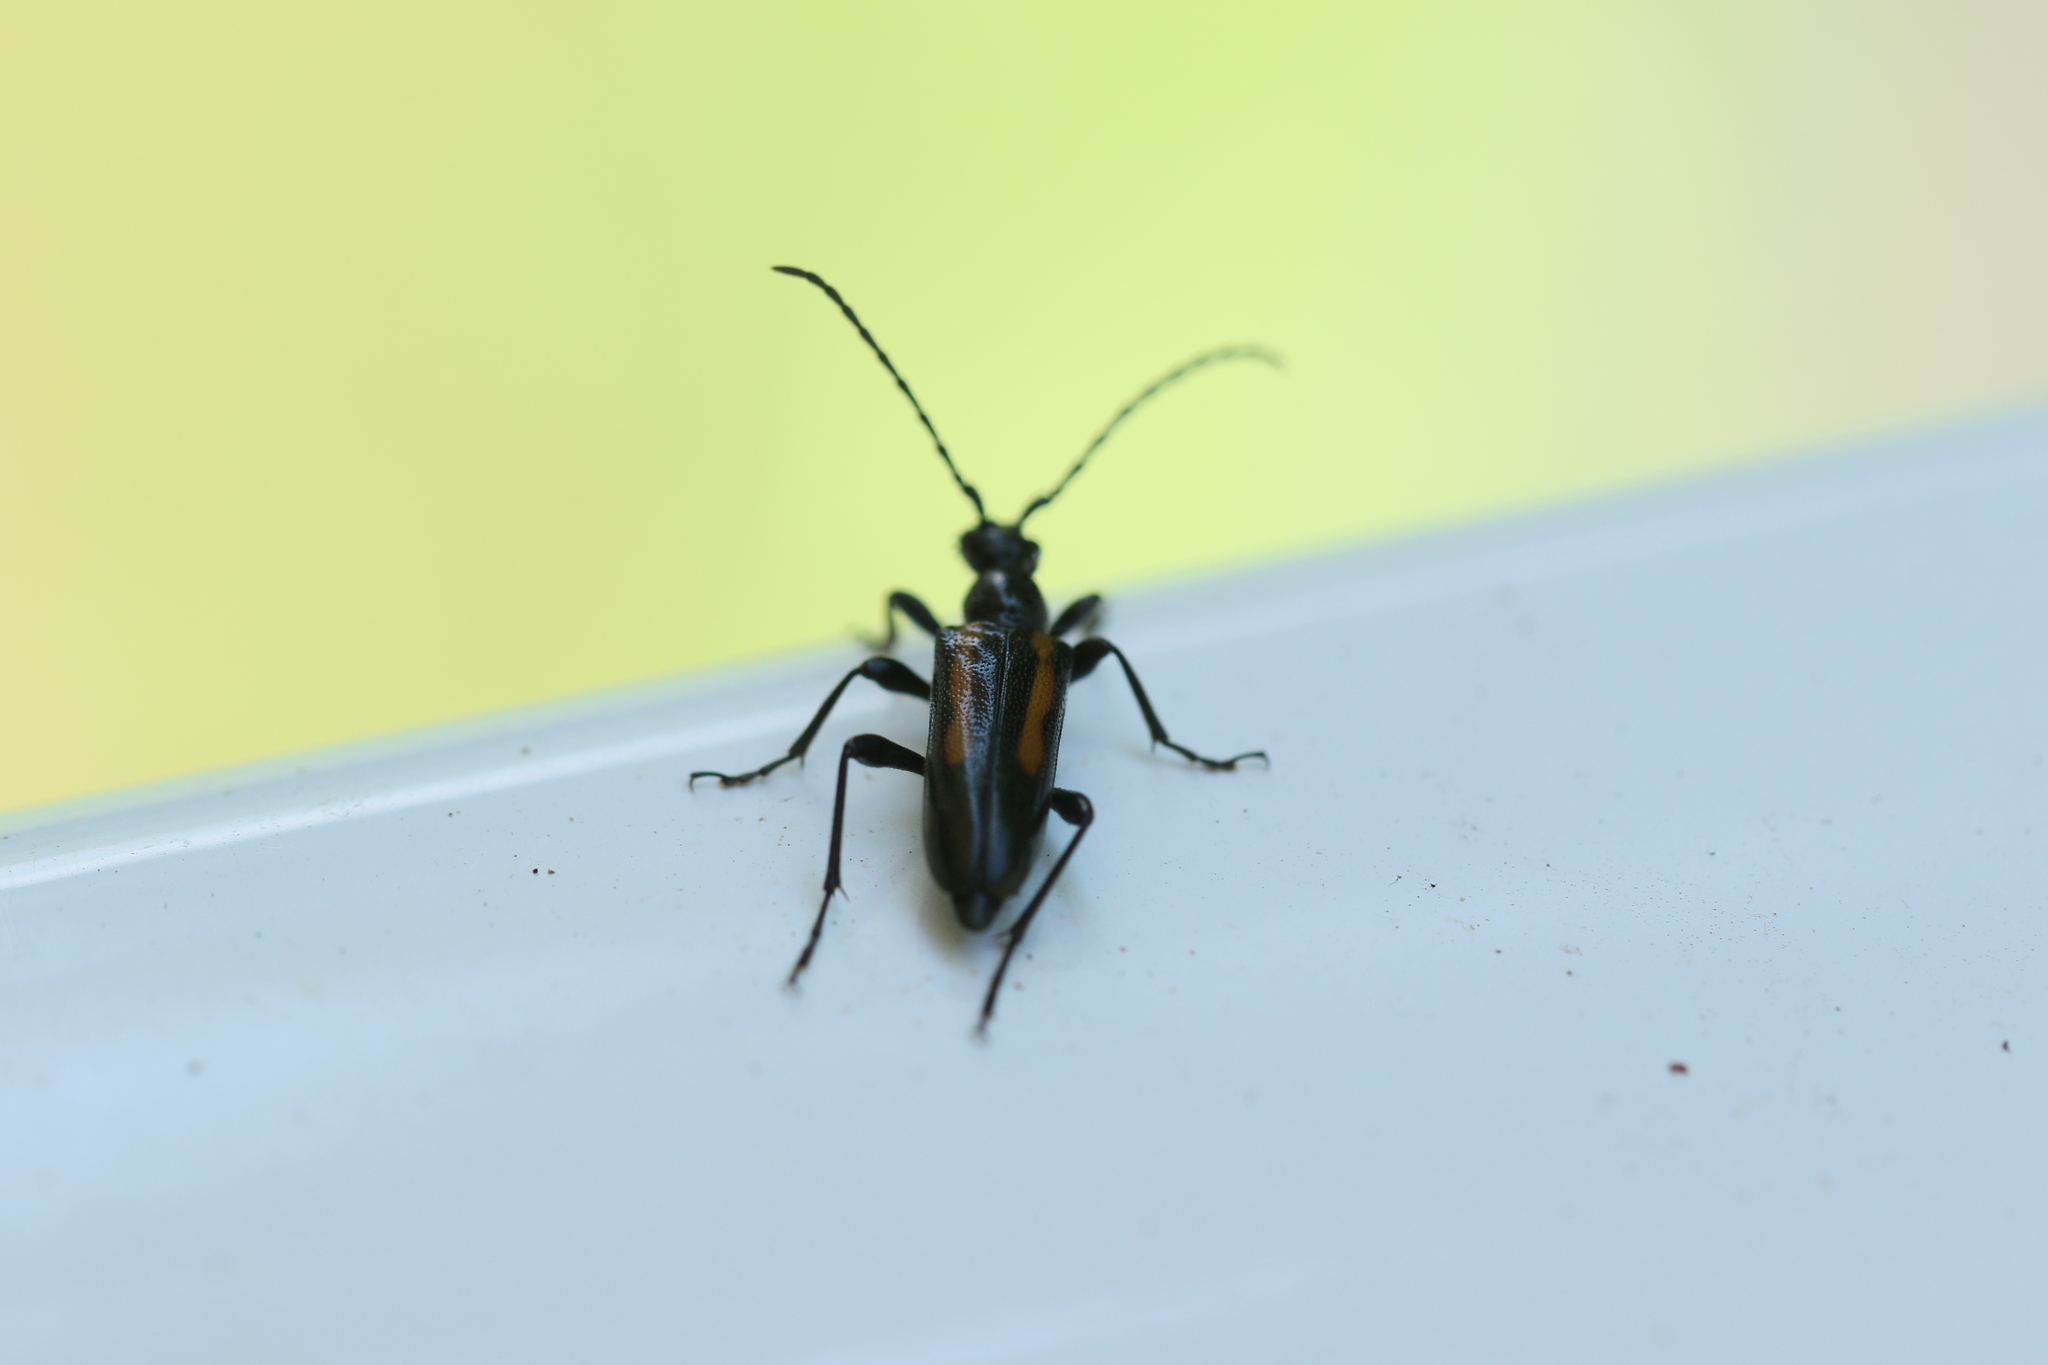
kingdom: Animalia
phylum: Arthropoda
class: Insecta
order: Coleoptera
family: Cerambycidae
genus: Strangalepta
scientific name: Strangalepta abbreviata
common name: Strangalepta flower longhorn beetle
